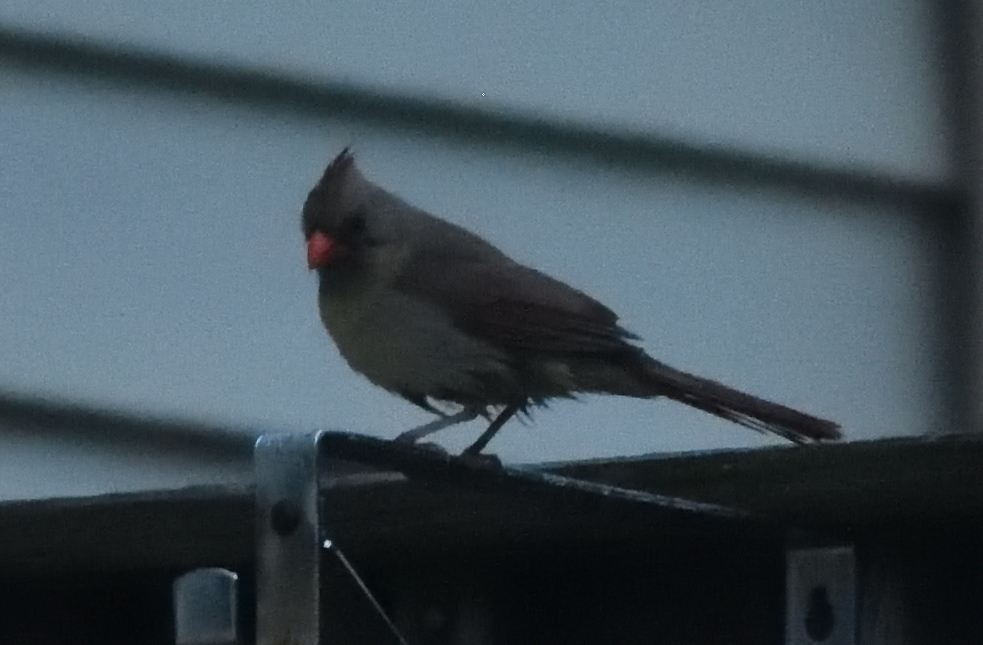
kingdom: Animalia
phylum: Chordata
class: Aves
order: Passeriformes
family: Cardinalidae
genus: Cardinalis
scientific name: Cardinalis cardinalis
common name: Northern cardinal
